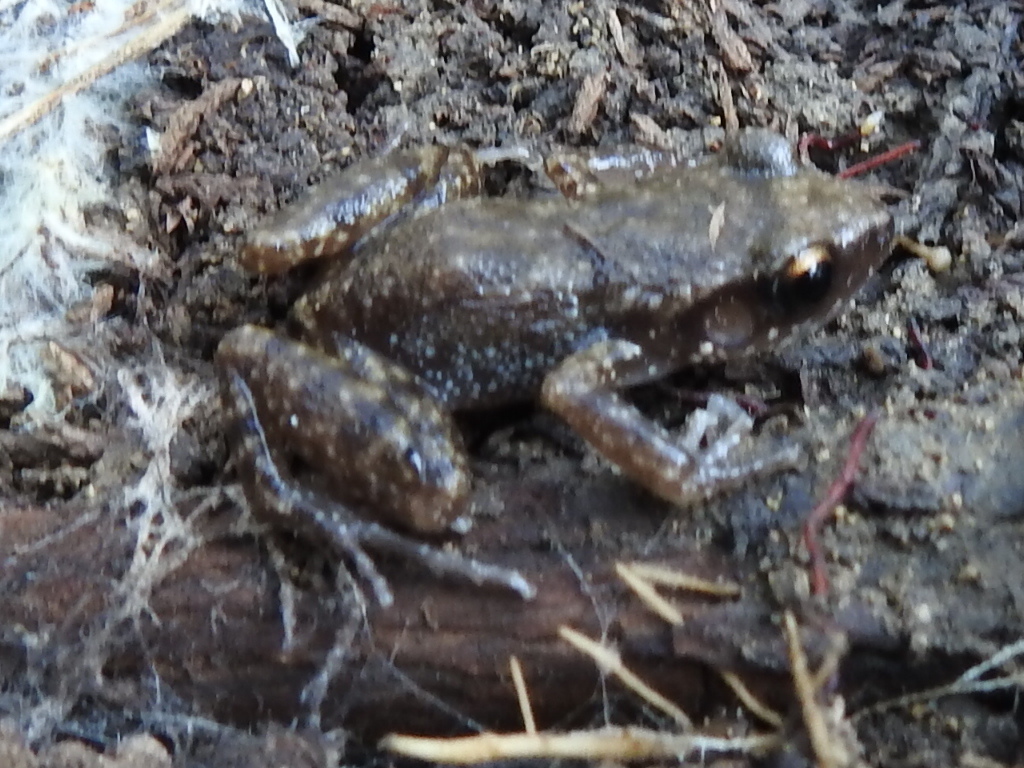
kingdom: Animalia
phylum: Chordata
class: Amphibia
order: Anura
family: Eleutherodactylidae
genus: Eleutherodactylus
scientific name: Eleutherodactylus campi
